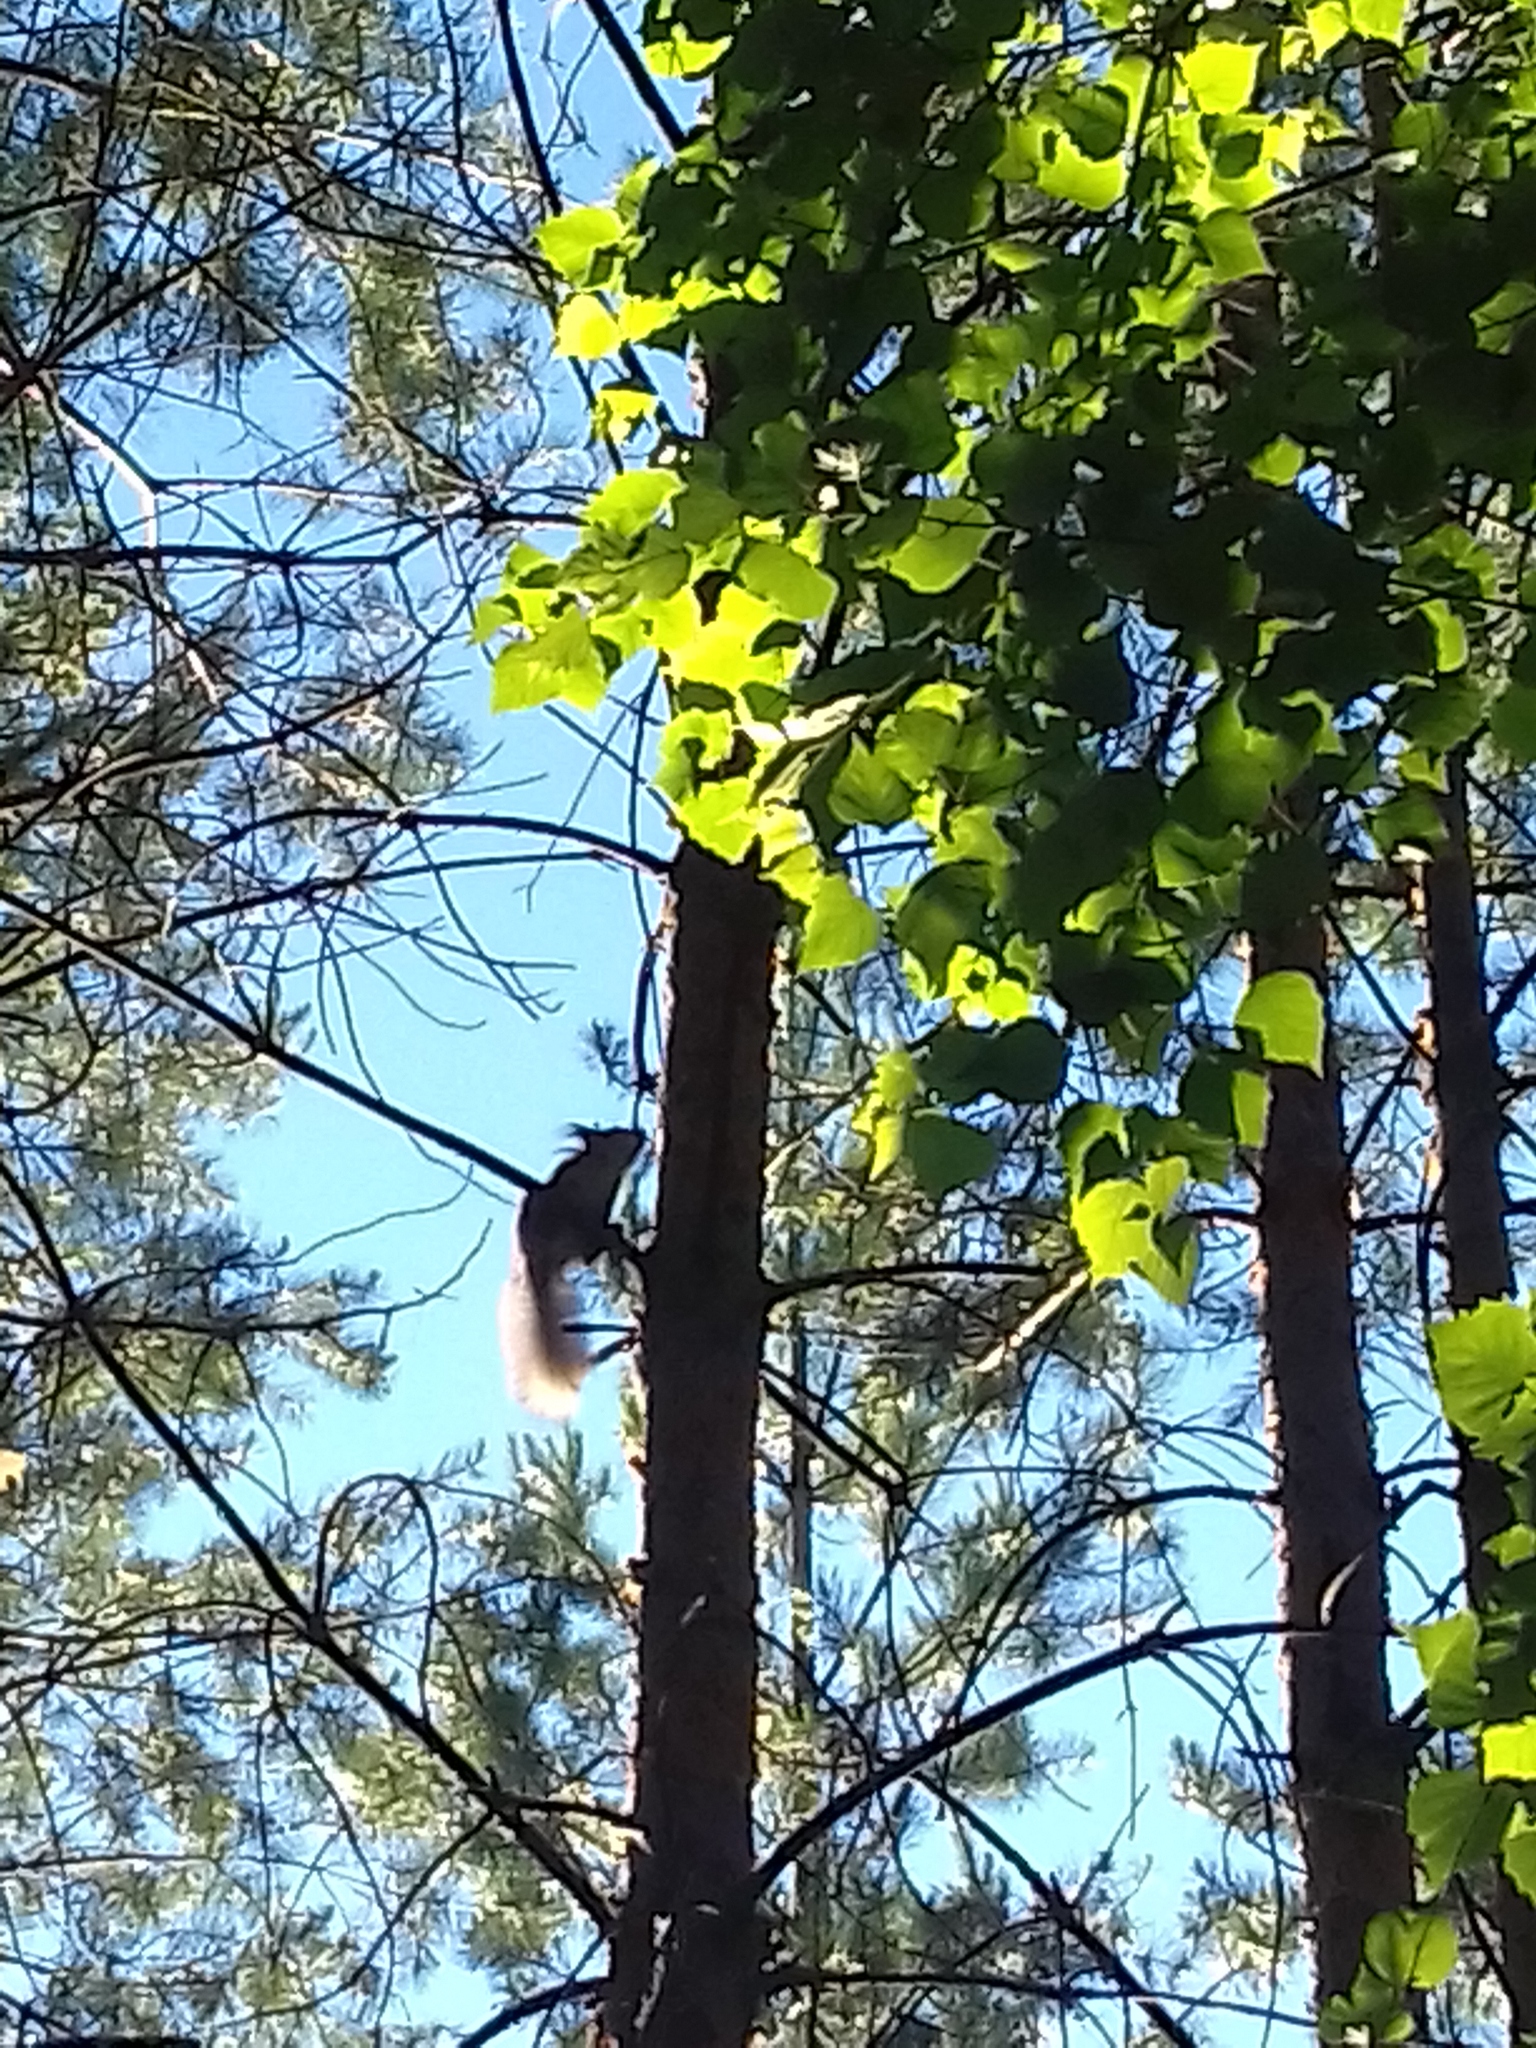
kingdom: Animalia
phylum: Chordata
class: Mammalia
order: Rodentia
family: Sciuridae
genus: Sciurus
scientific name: Sciurus vulgaris
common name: Eurasian red squirrel
